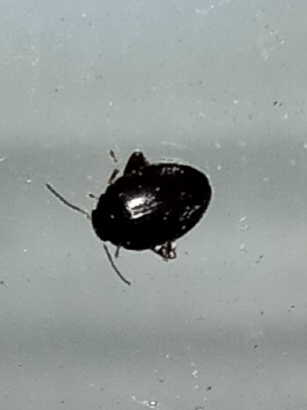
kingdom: Animalia
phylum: Arthropoda
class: Insecta
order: Coleoptera
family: Scirtidae
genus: Scirtes
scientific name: Scirtes tibialis
